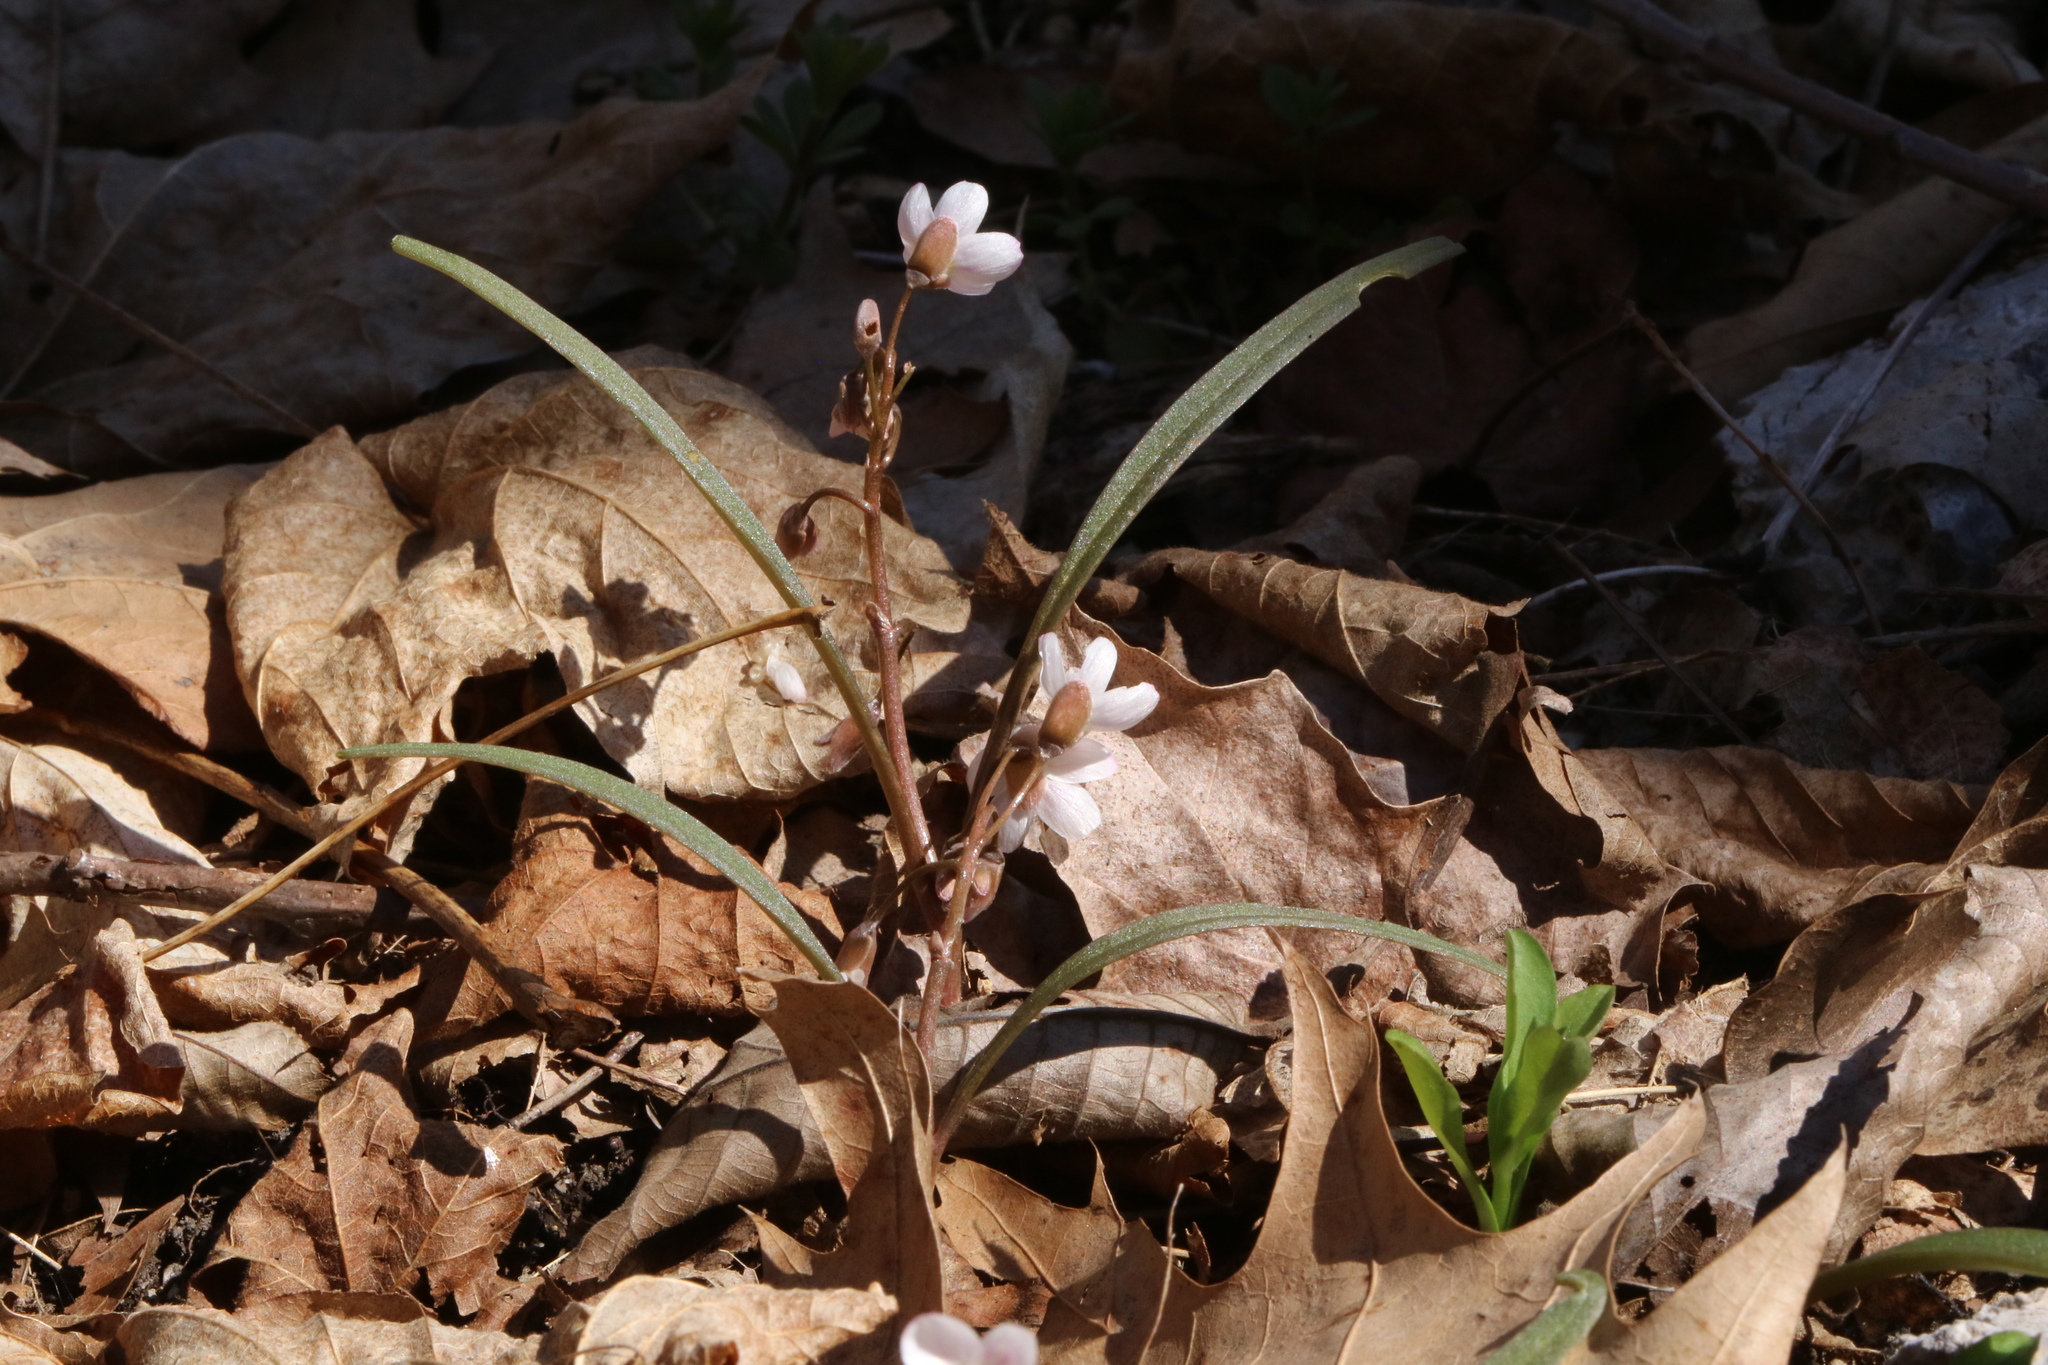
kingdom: Plantae
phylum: Tracheophyta
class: Magnoliopsida
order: Caryophyllales
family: Montiaceae
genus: Claytonia
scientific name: Claytonia virginica
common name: Virginia springbeauty
